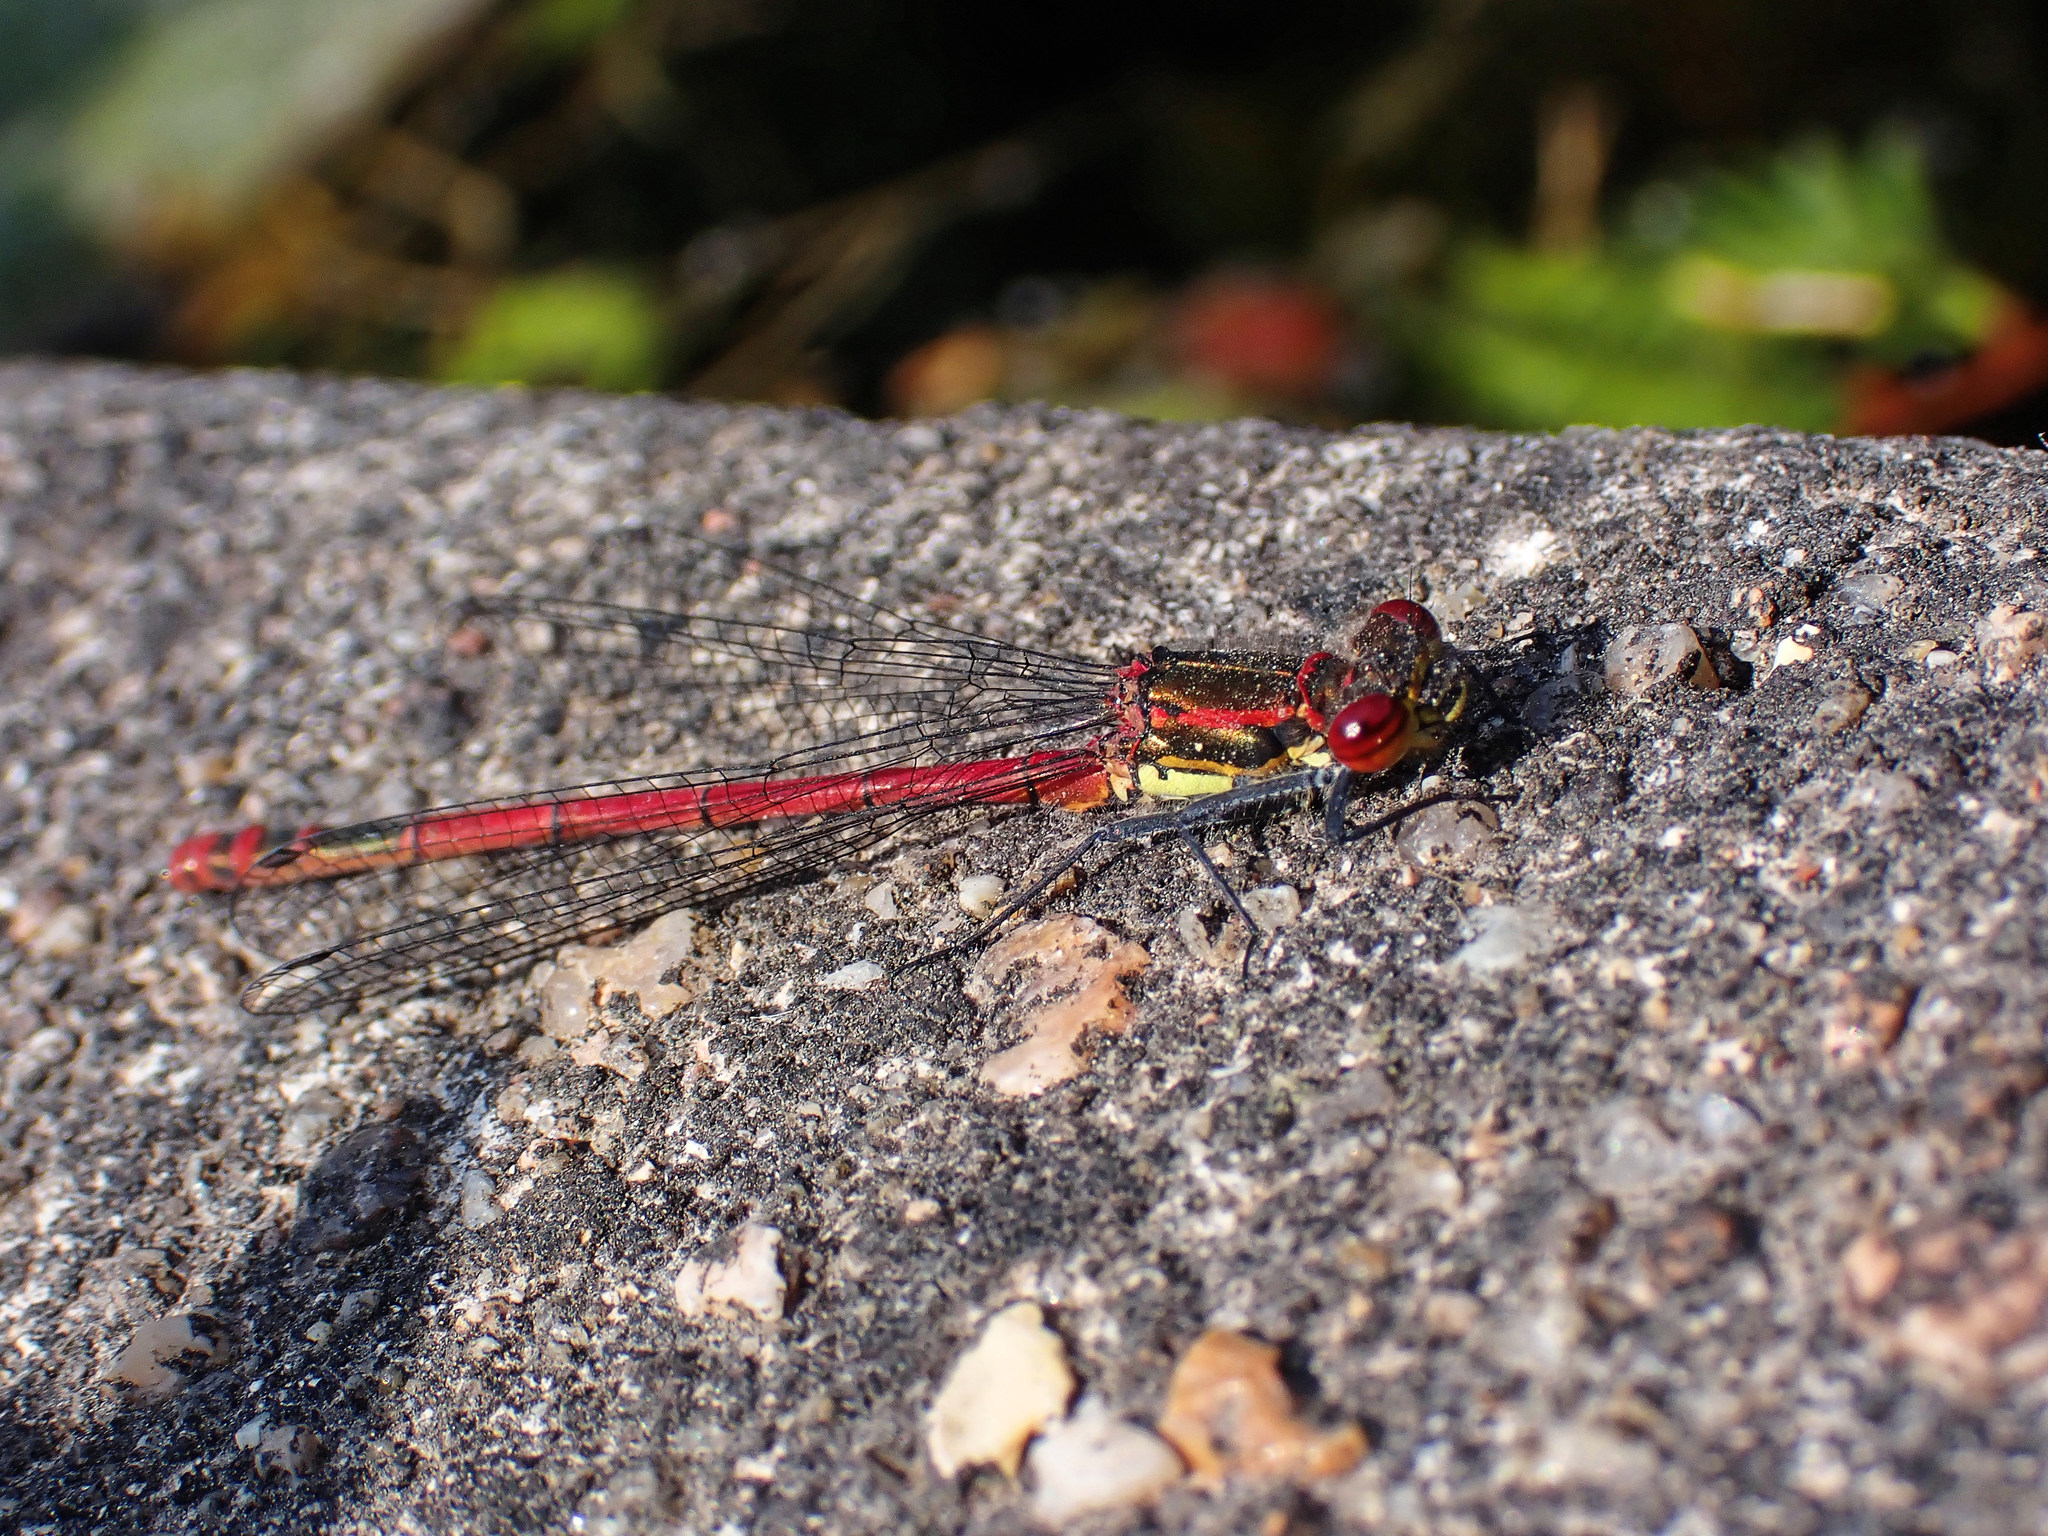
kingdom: Animalia
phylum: Arthropoda
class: Insecta
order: Odonata
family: Coenagrionidae
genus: Pyrrhosoma
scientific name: Pyrrhosoma nymphula
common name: Large red damsel
